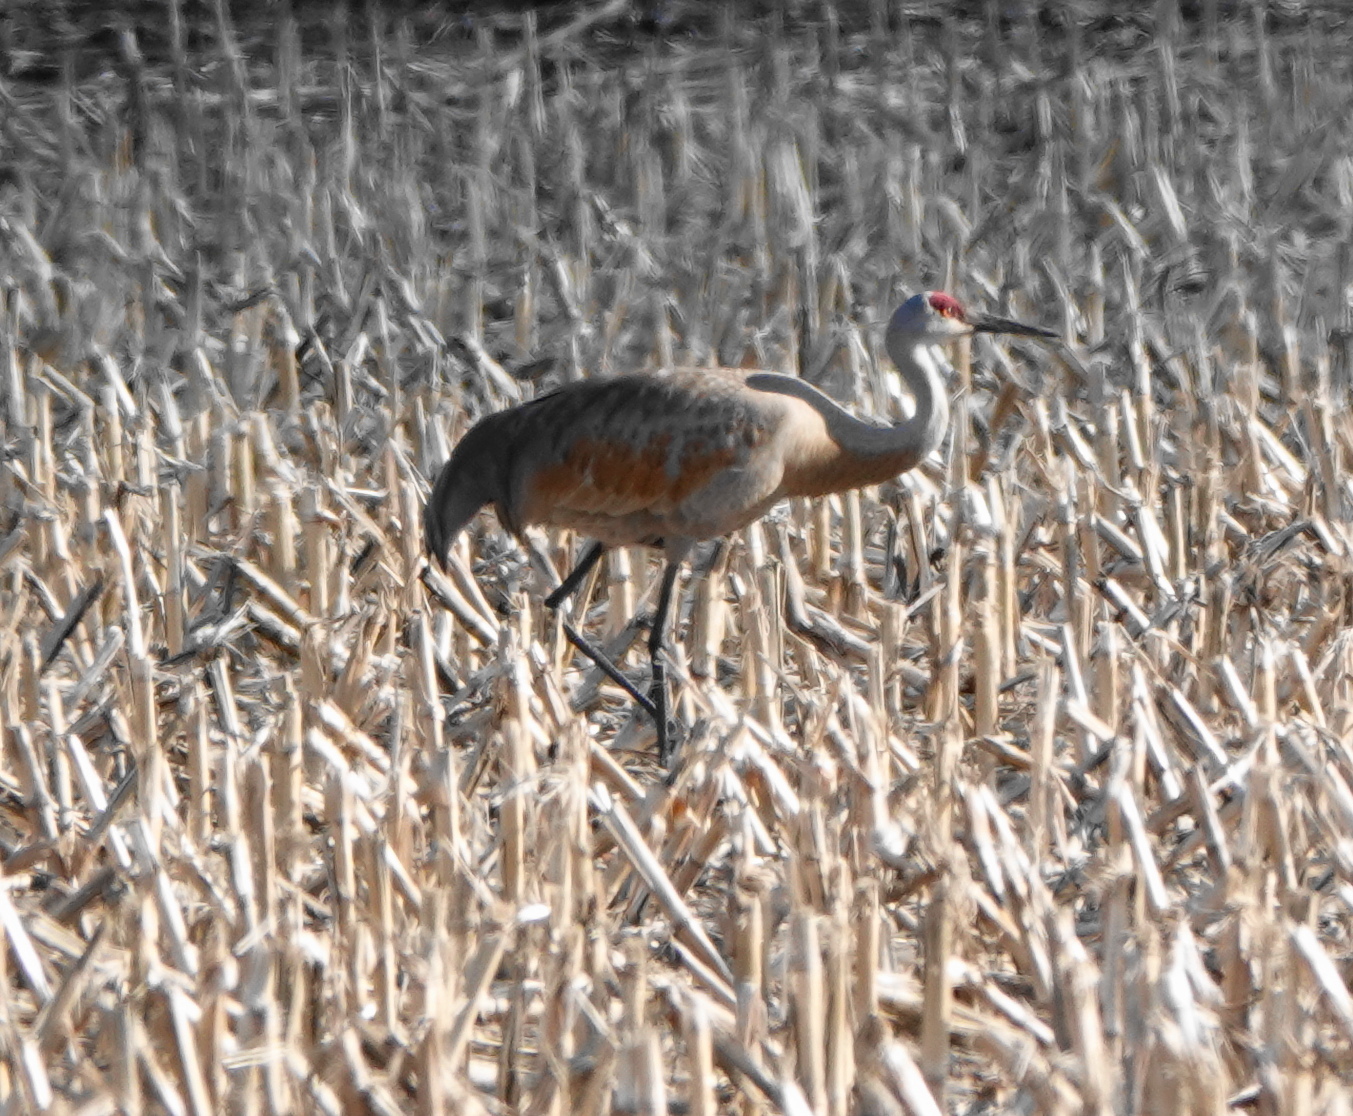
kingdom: Animalia
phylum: Chordata
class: Aves
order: Gruiformes
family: Gruidae
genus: Grus
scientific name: Grus canadensis
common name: Sandhill crane
